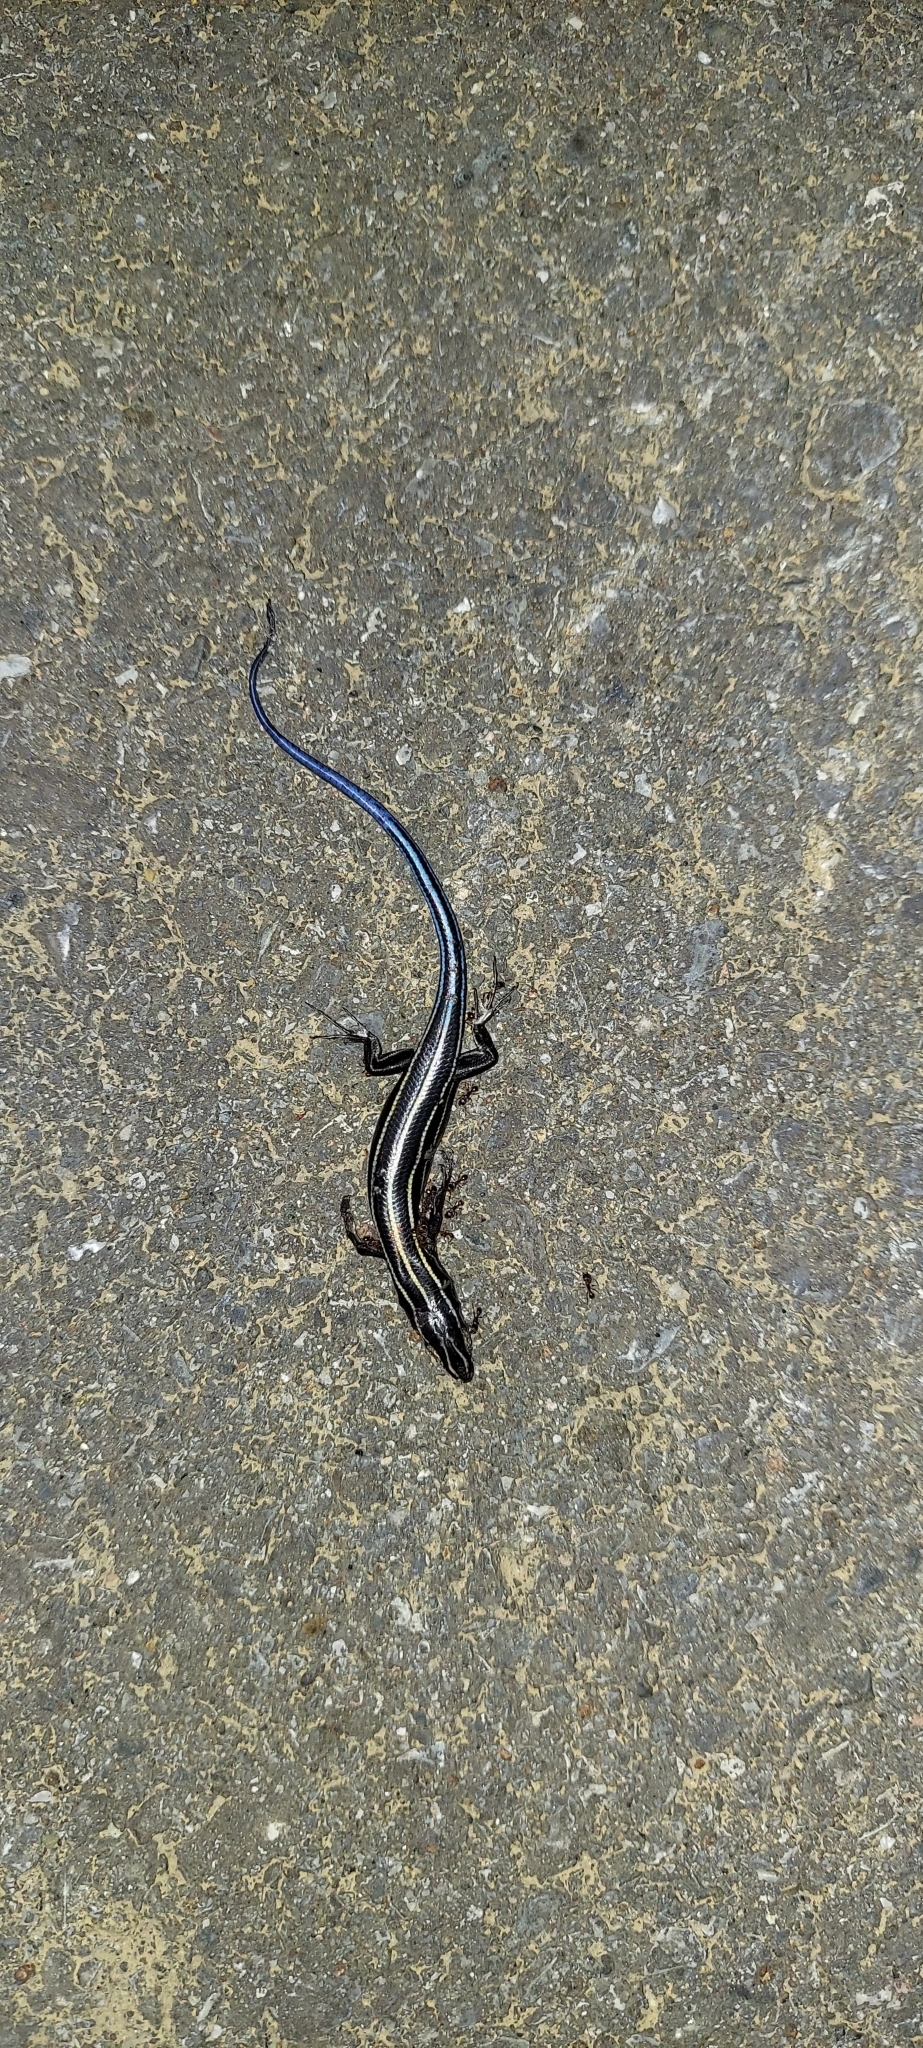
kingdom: Animalia
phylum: Chordata
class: Squamata
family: Scincidae
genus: Plestiodon
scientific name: Plestiodon fasciatus
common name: Five-lined skink
